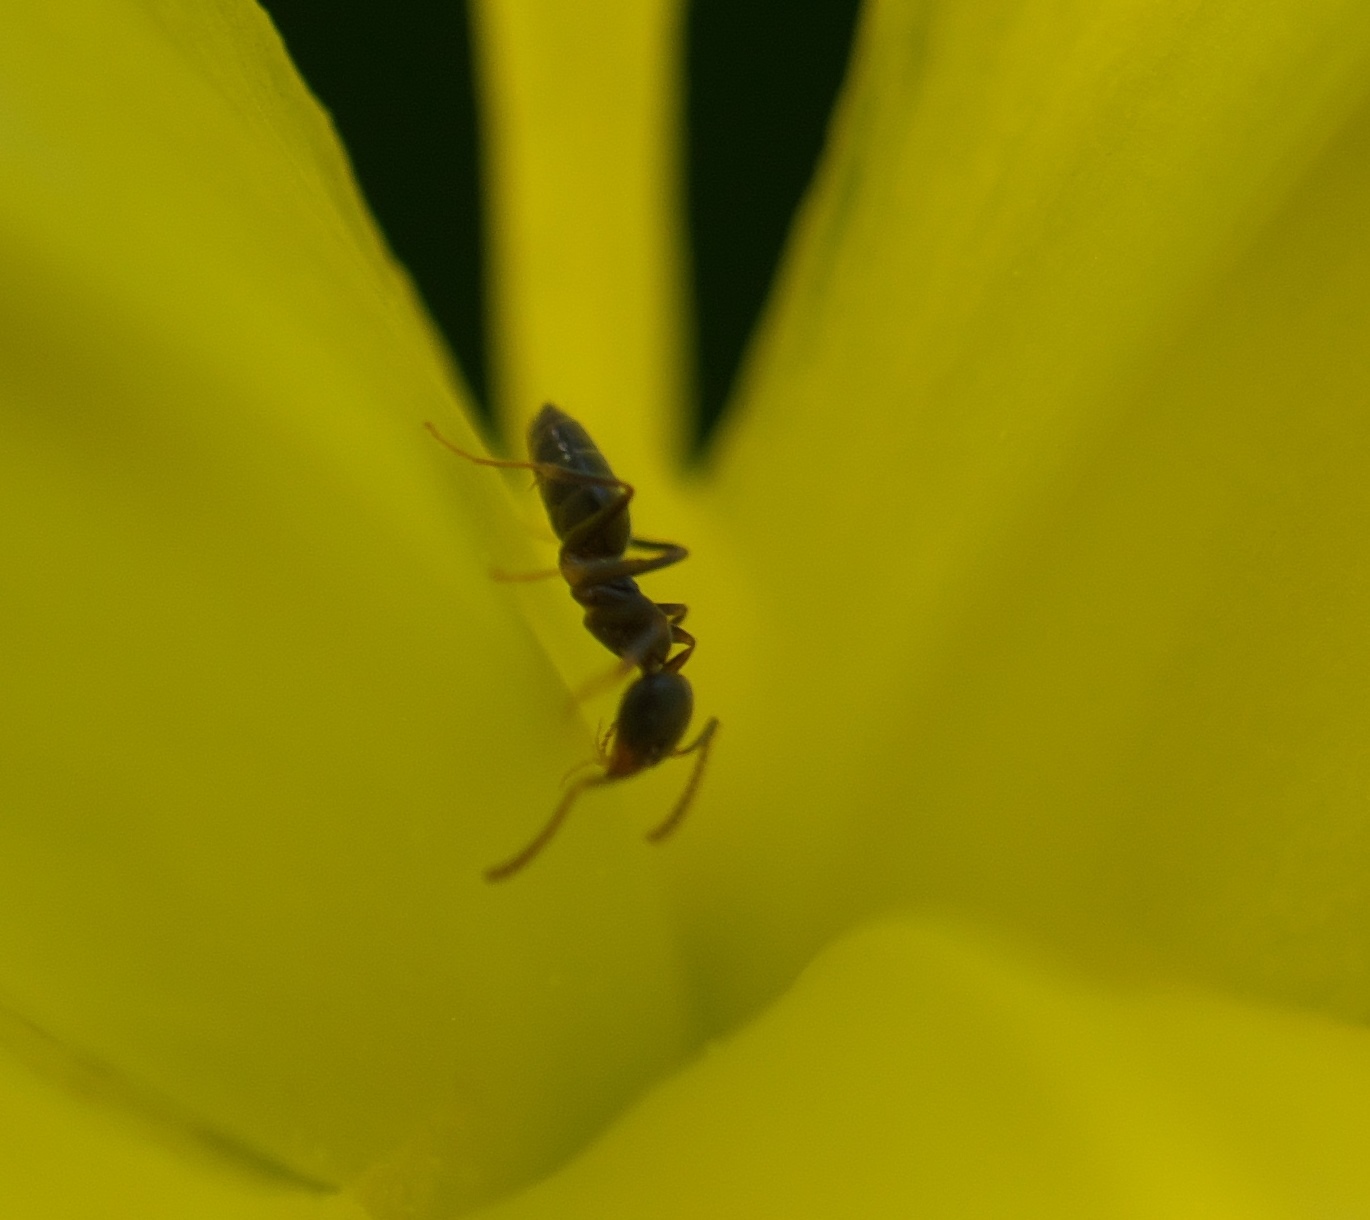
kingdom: Animalia
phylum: Arthropoda
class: Insecta
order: Hymenoptera
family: Formicidae
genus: Tapinoma
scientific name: Tapinoma sessile
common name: Odorous house ant
